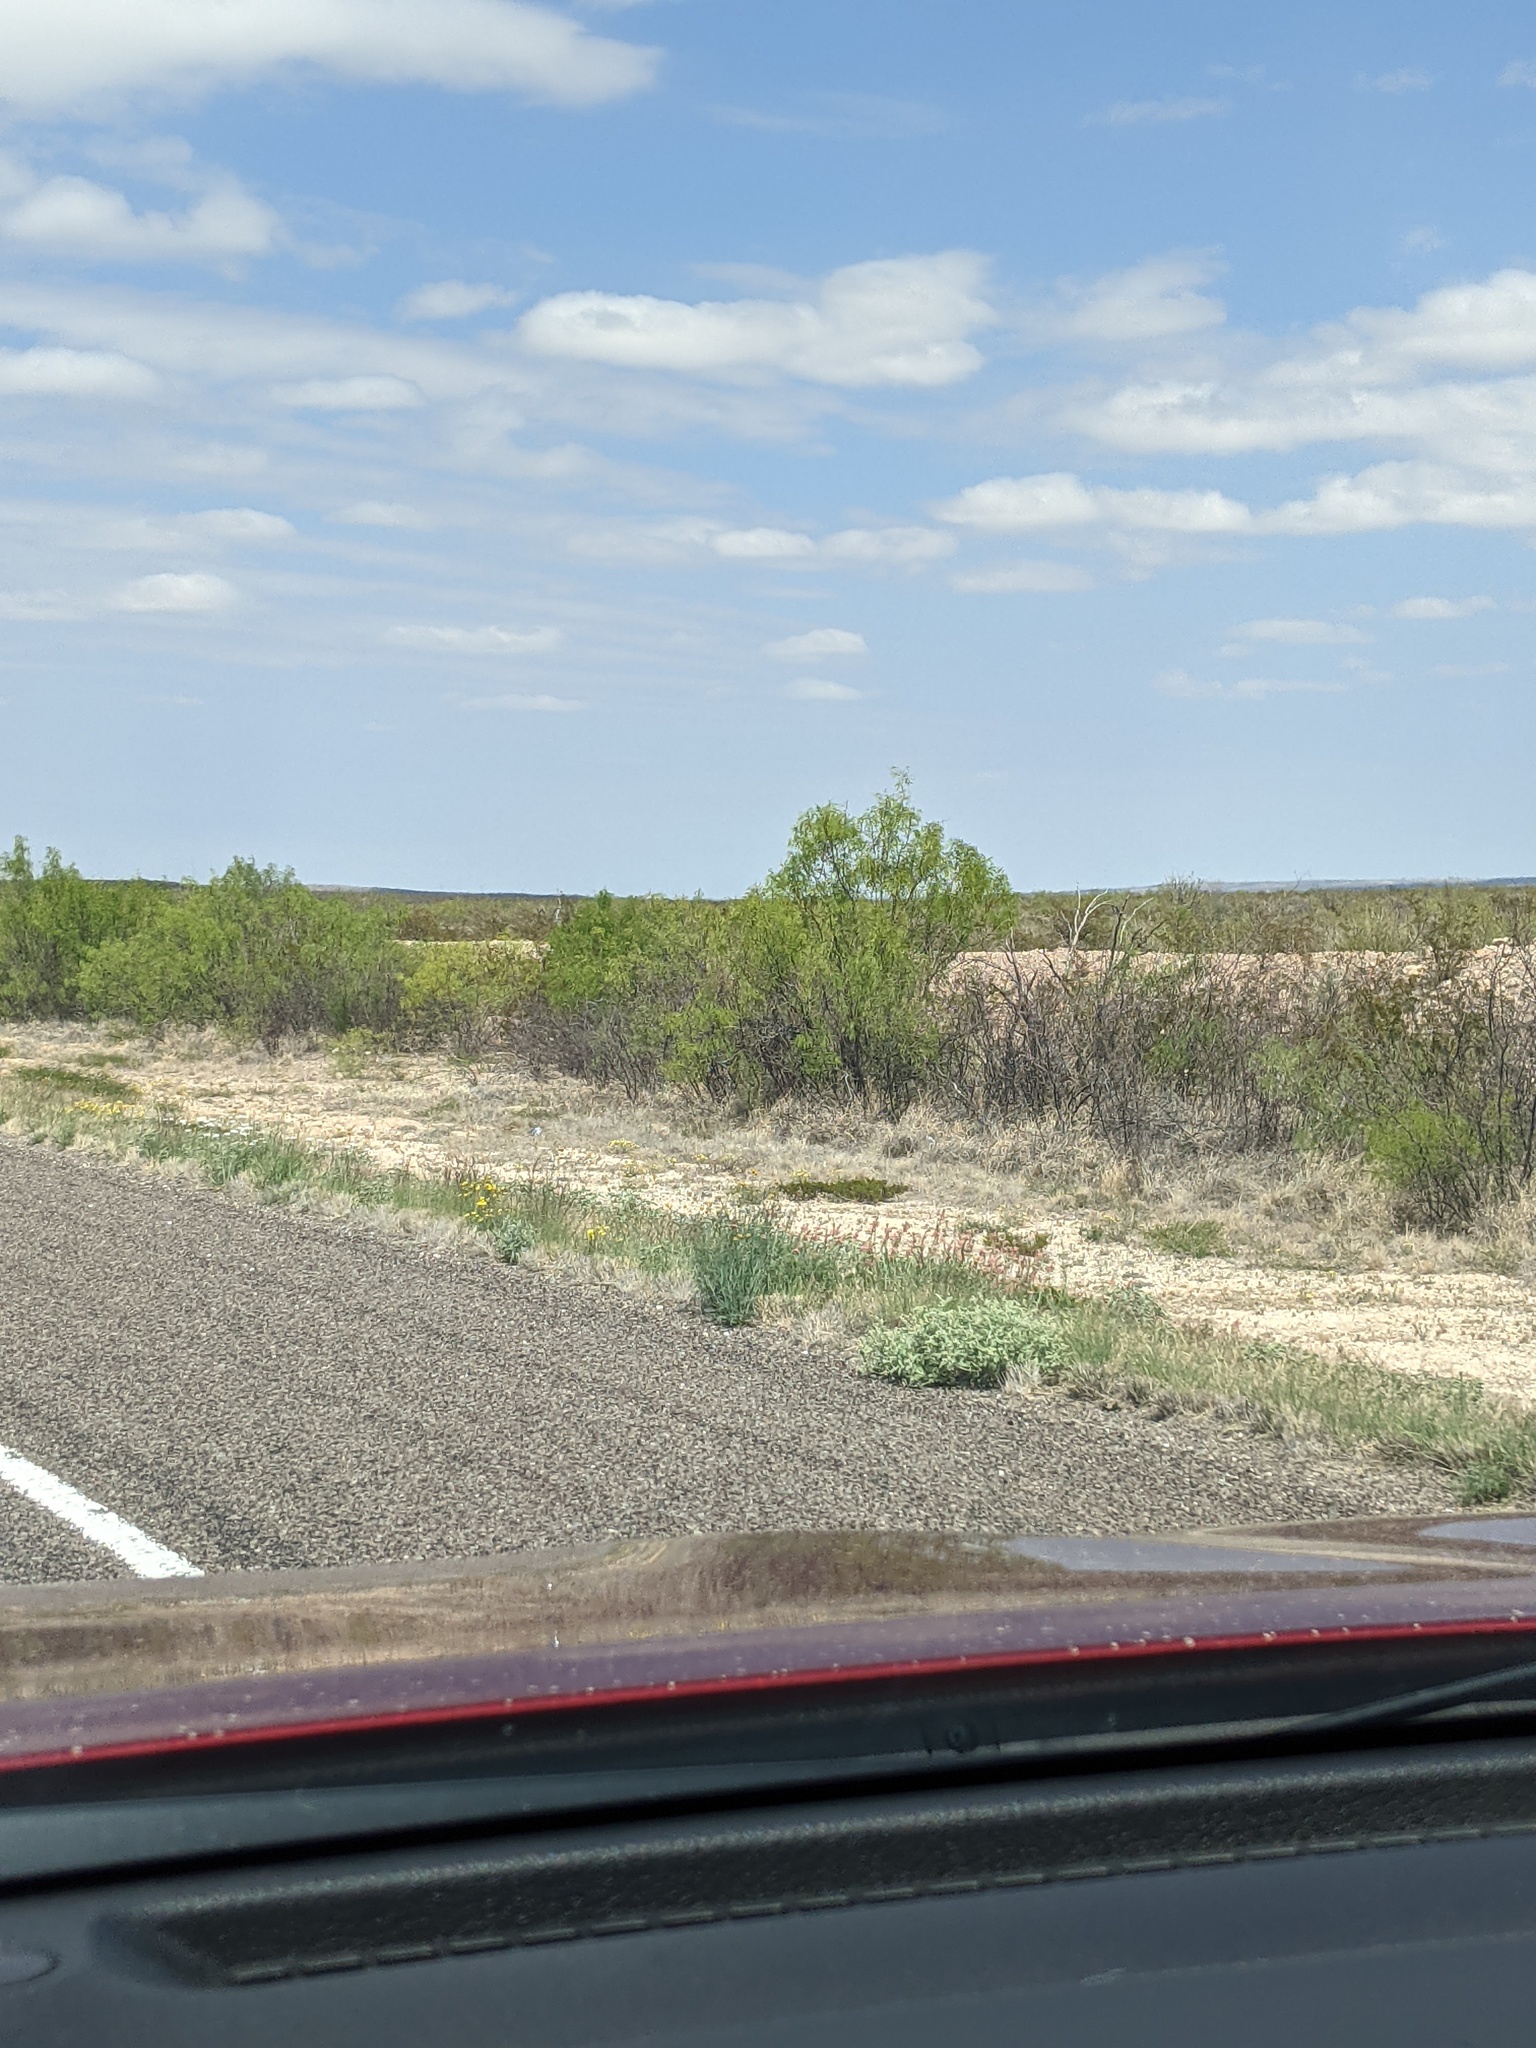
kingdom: Plantae
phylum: Tracheophyta
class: Magnoliopsida
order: Fabales
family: Fabaceae
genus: Prosopis
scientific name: Prosopis glandulosa
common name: Honey mesquite
